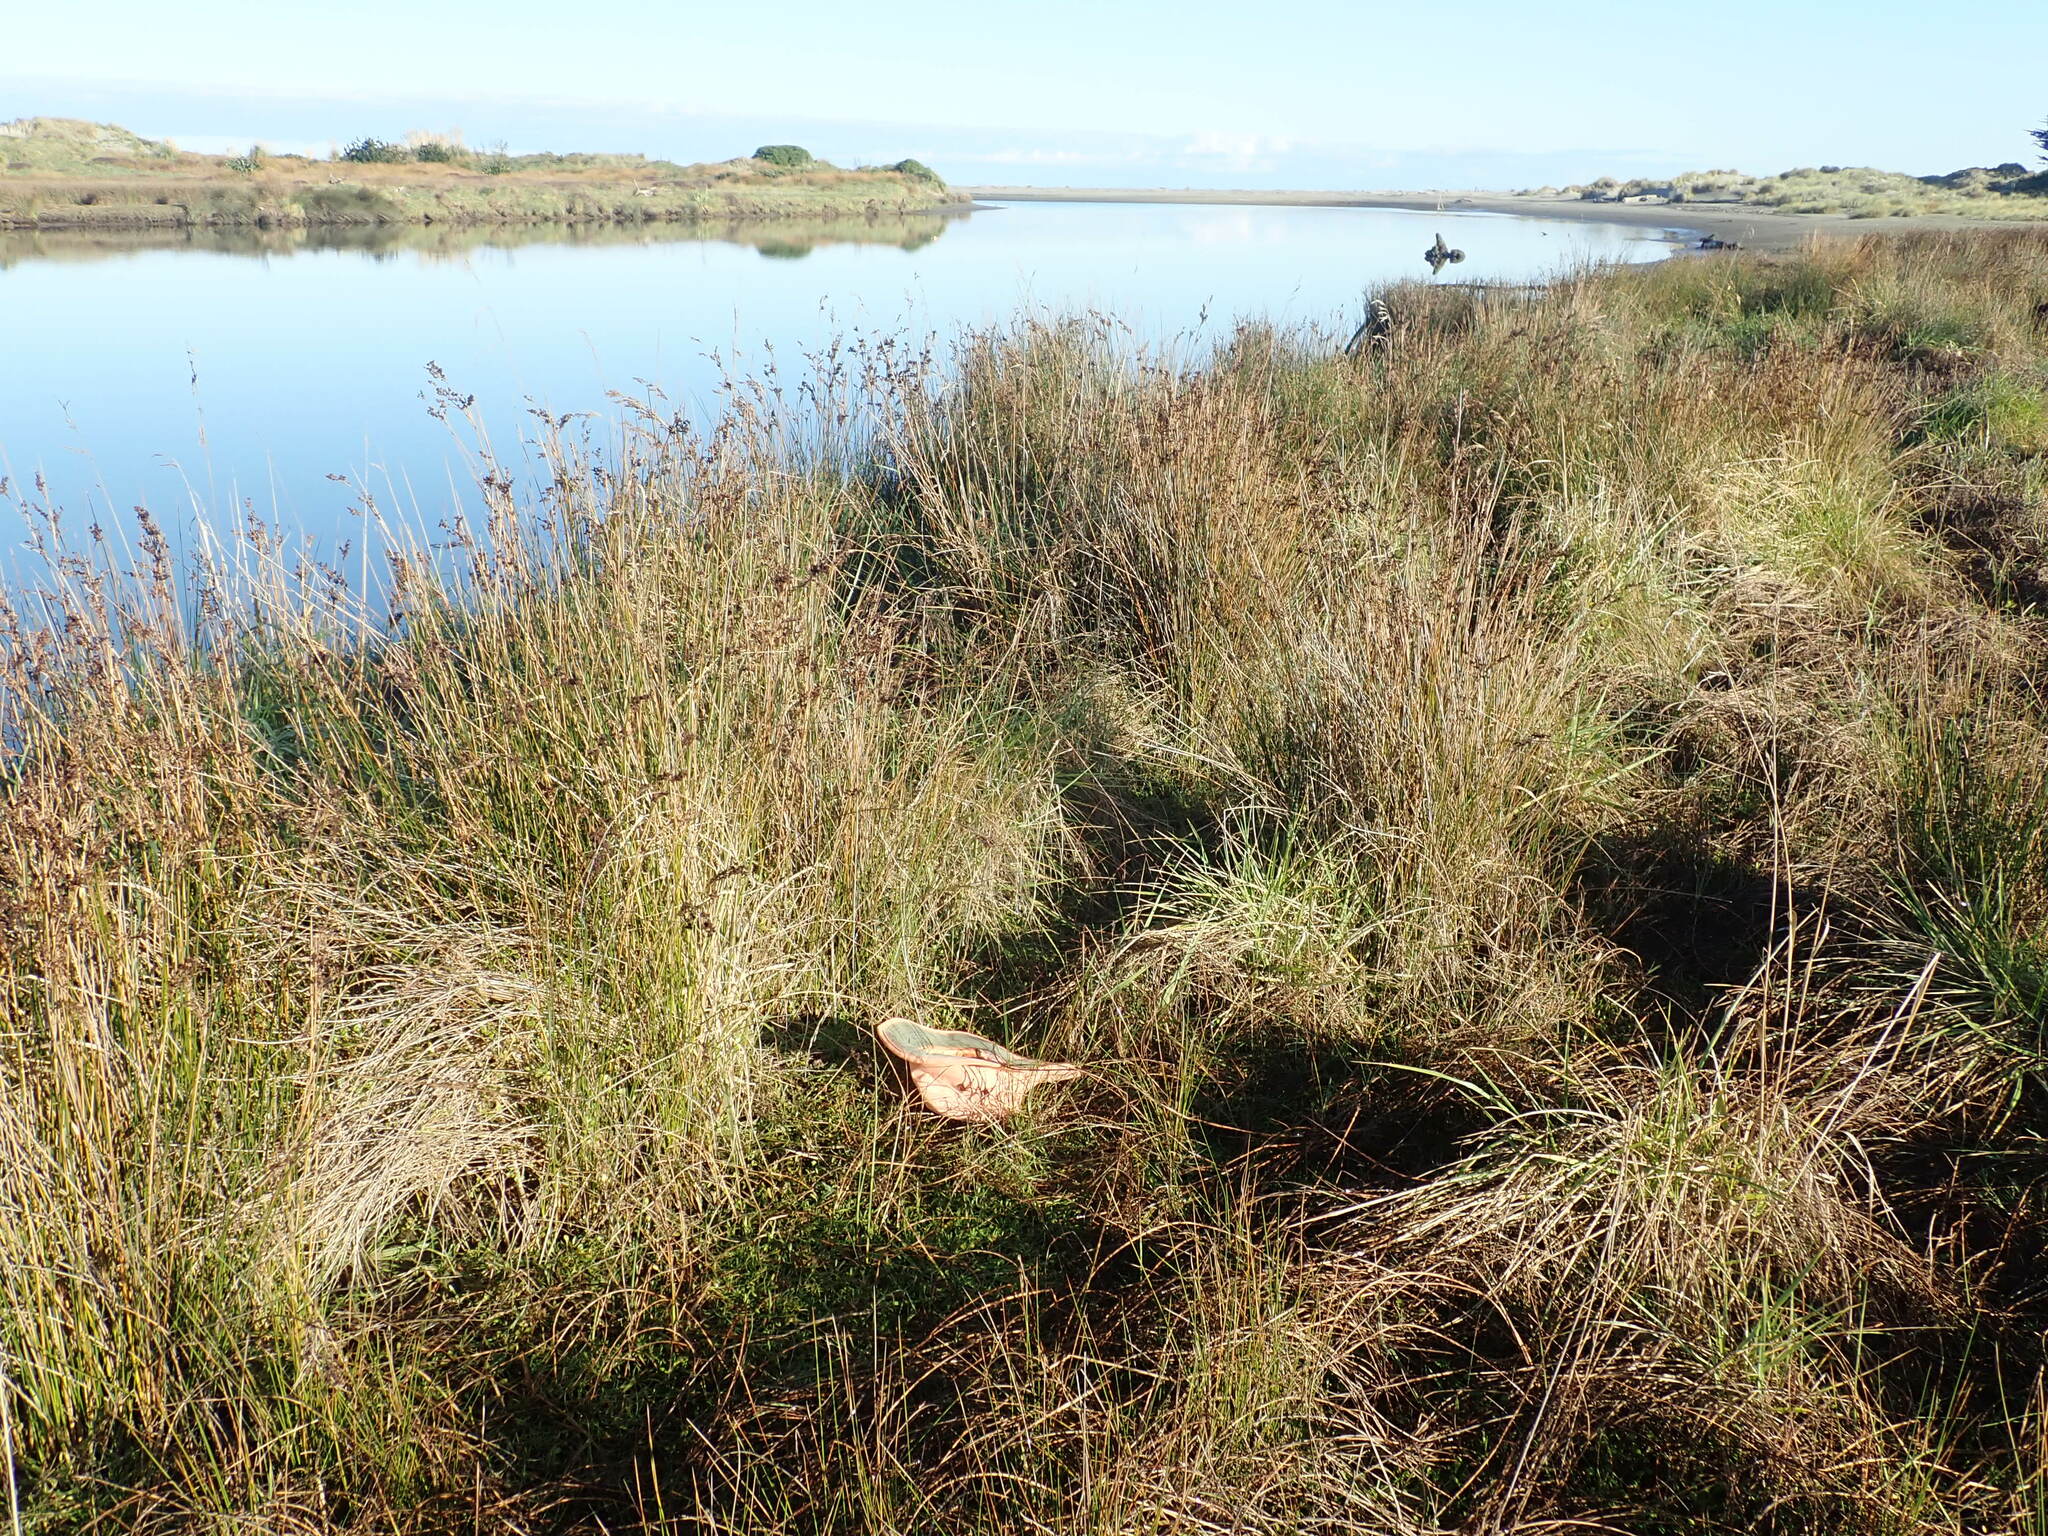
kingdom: Plantae
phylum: Tracheophyta
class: Magnoliopsida
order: Asterales
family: Goodeniaceae
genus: Goodenia
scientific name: Goodenia radicans
